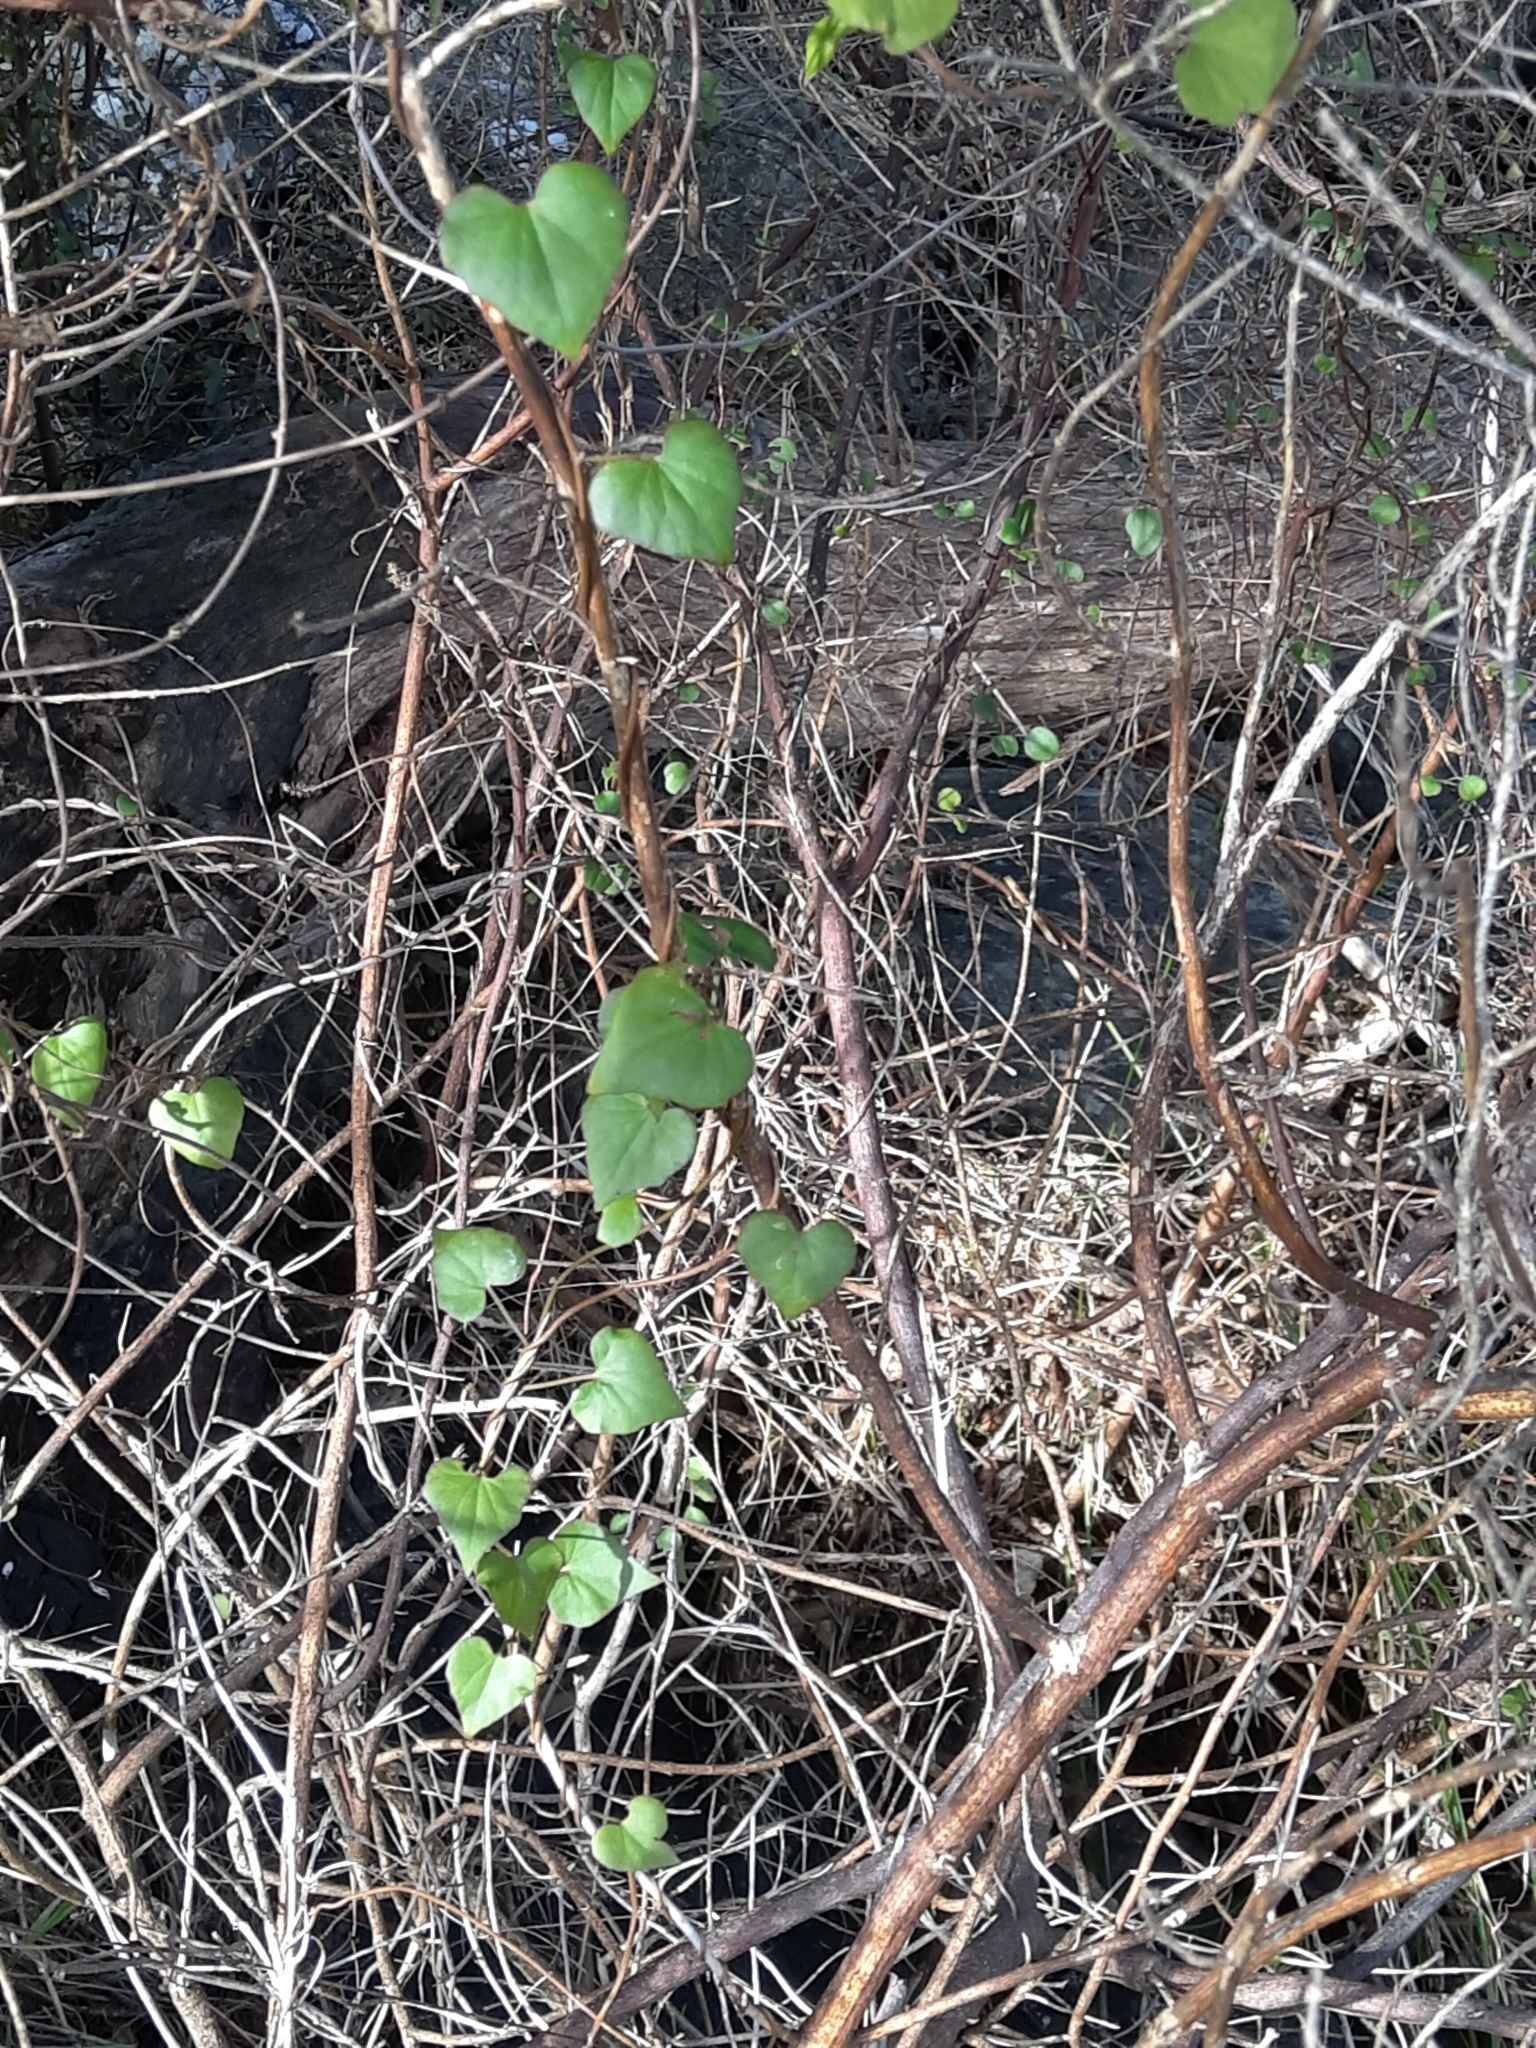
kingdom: Plantae
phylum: Tracheophyta
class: Magnoliopsida
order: Solanales
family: Convolvulaceae
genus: Calystegia
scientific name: Calystegia tuguriorum
